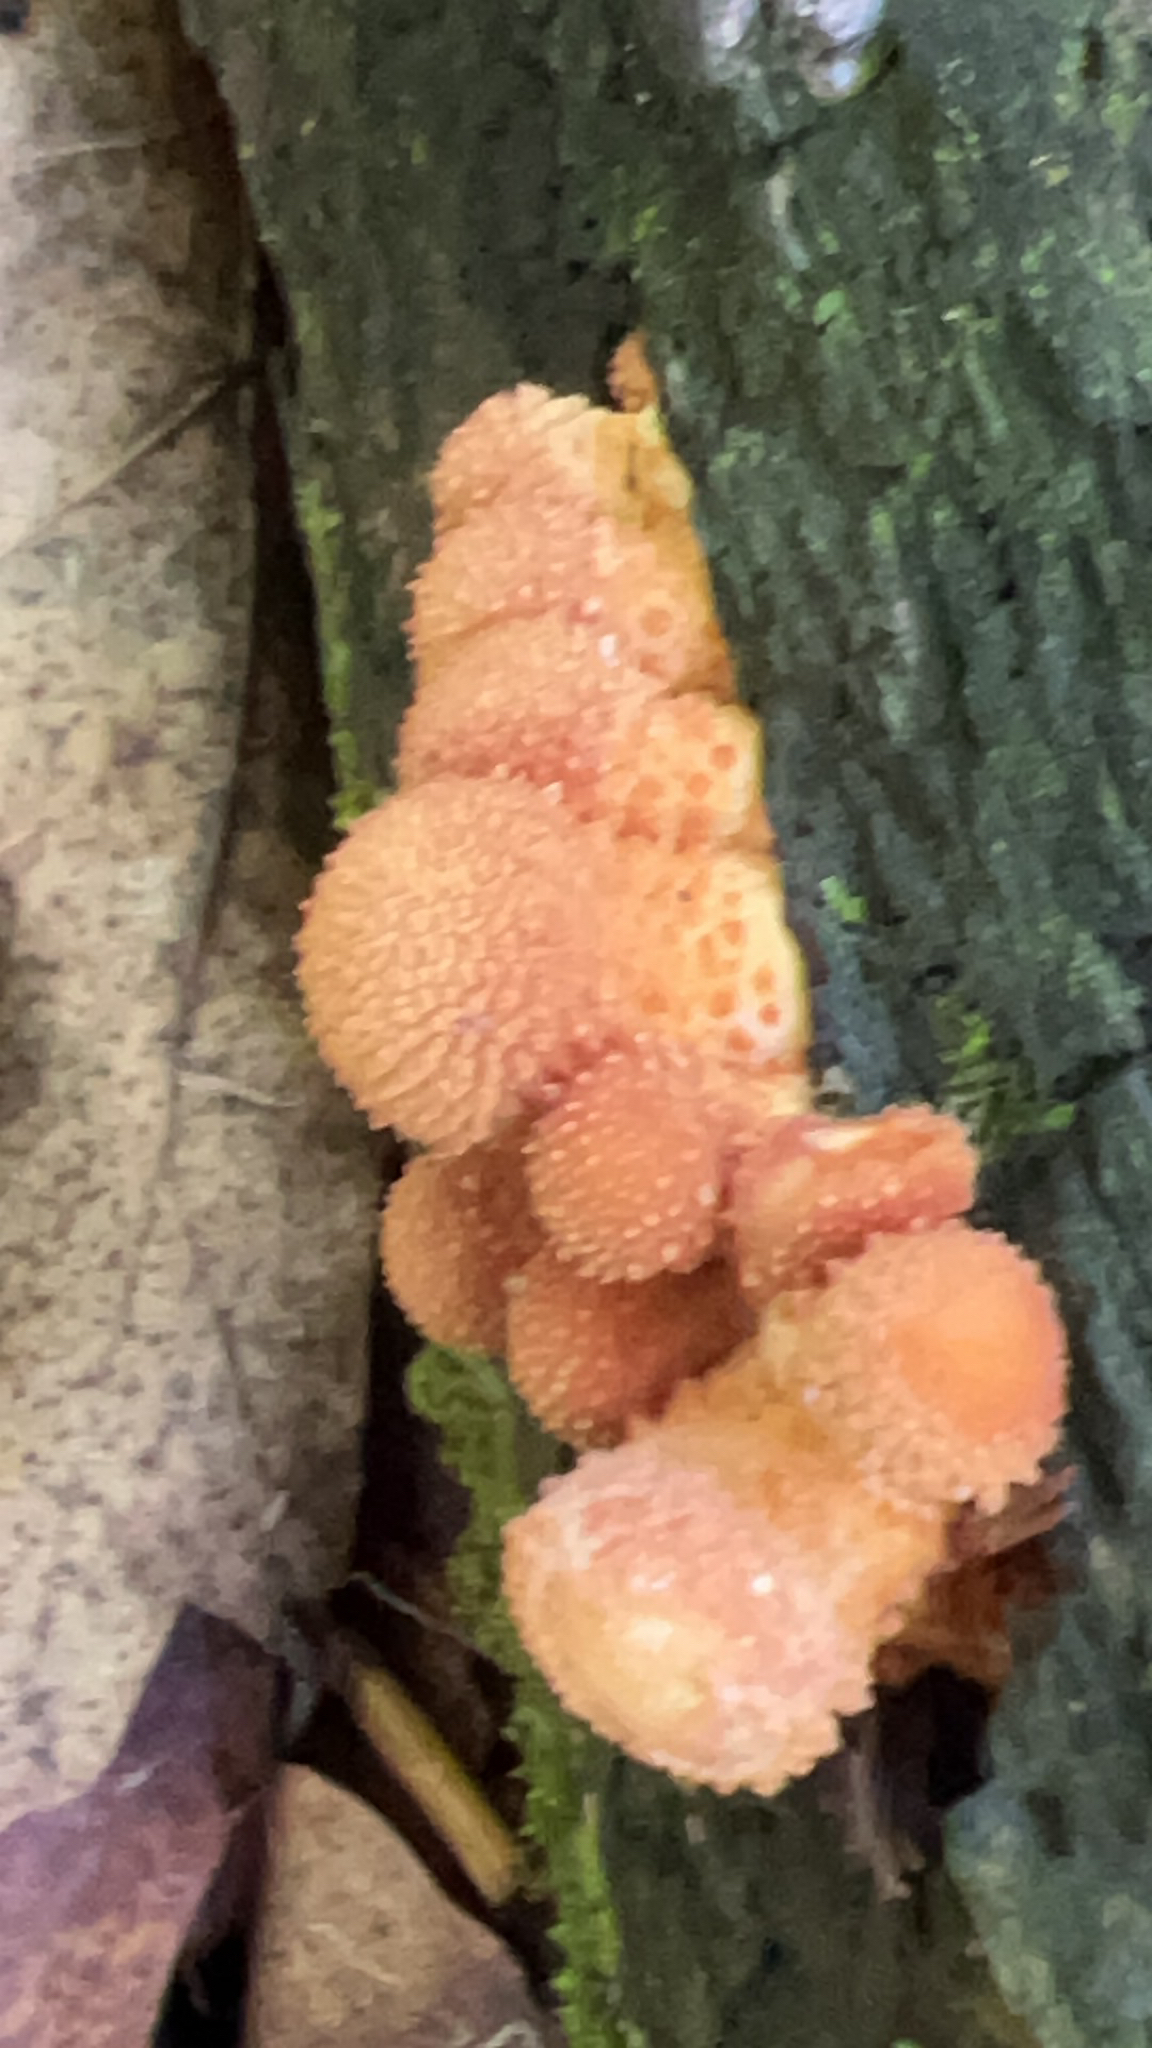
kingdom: Fungi
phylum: Basidiomycota
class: Agaricomycetes
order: Agaricales
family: Strophariaceae
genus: Pholiota
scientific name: Pholiota squarrosoides
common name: Sharp-scaly pholiota
